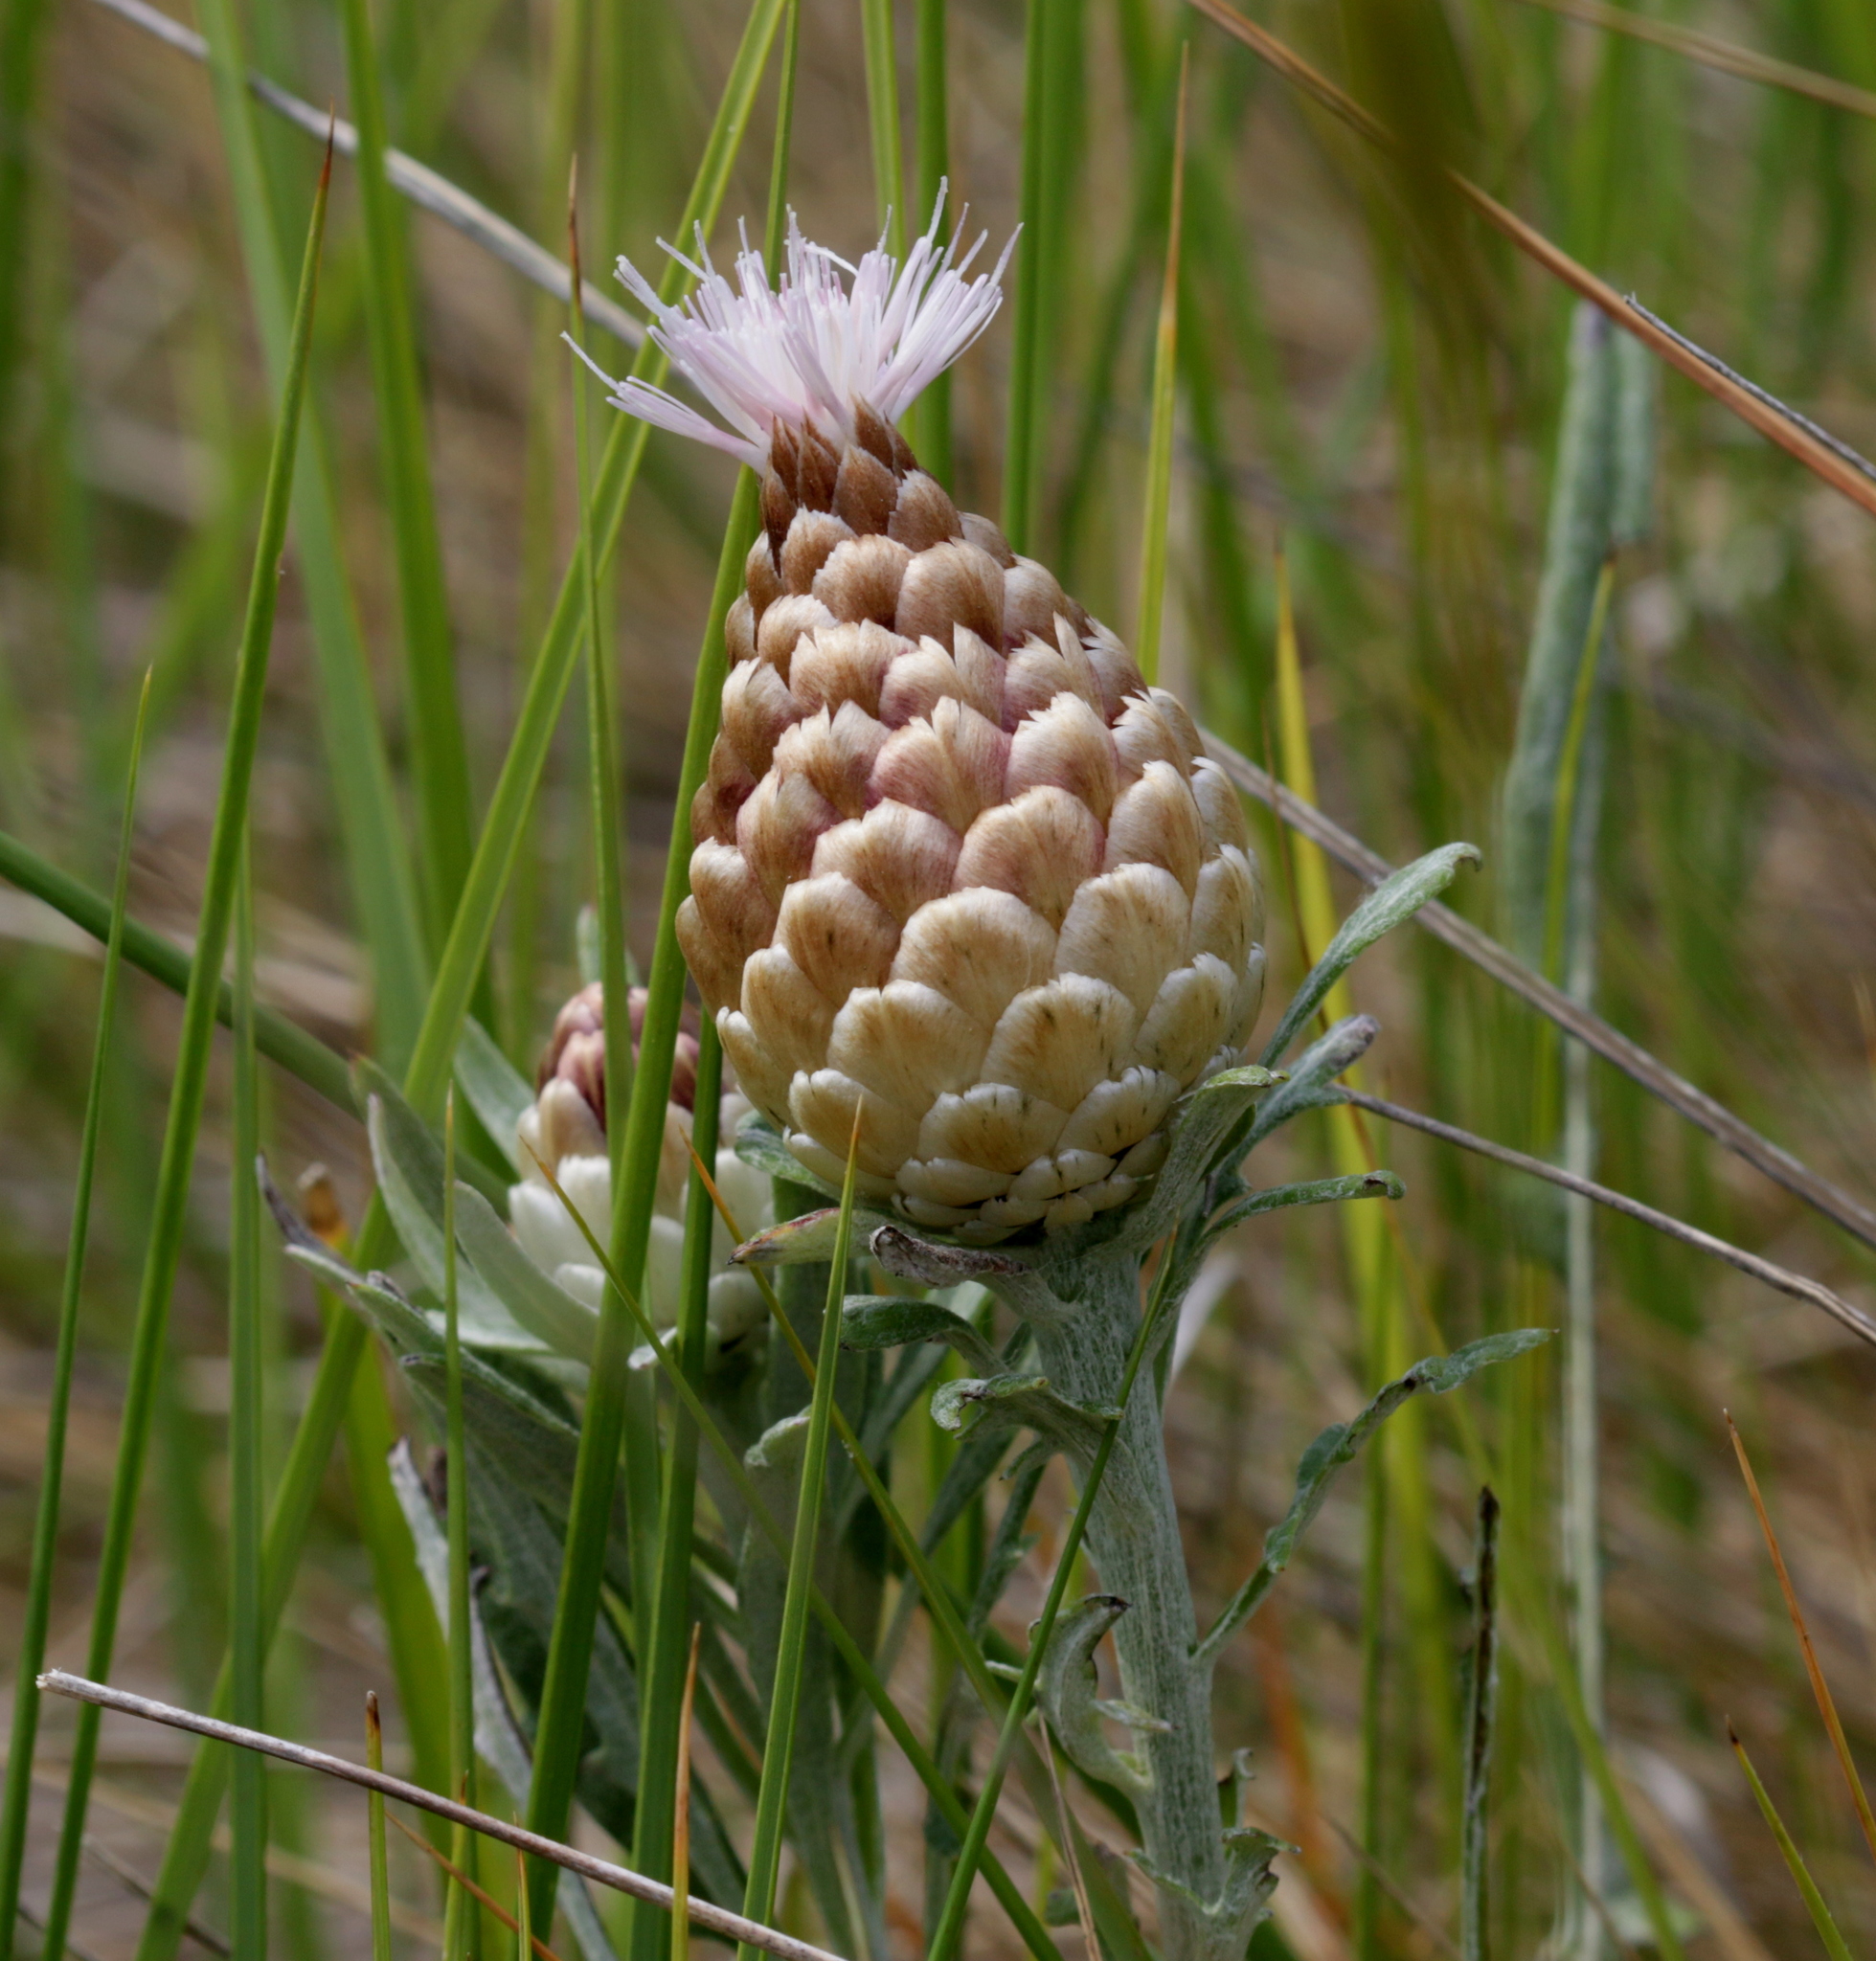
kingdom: Plantae
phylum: Tracheophyta
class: Magnoliopsida
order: Asterales
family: Asteraceae
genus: Leuzea
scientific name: Leuzea conifera
